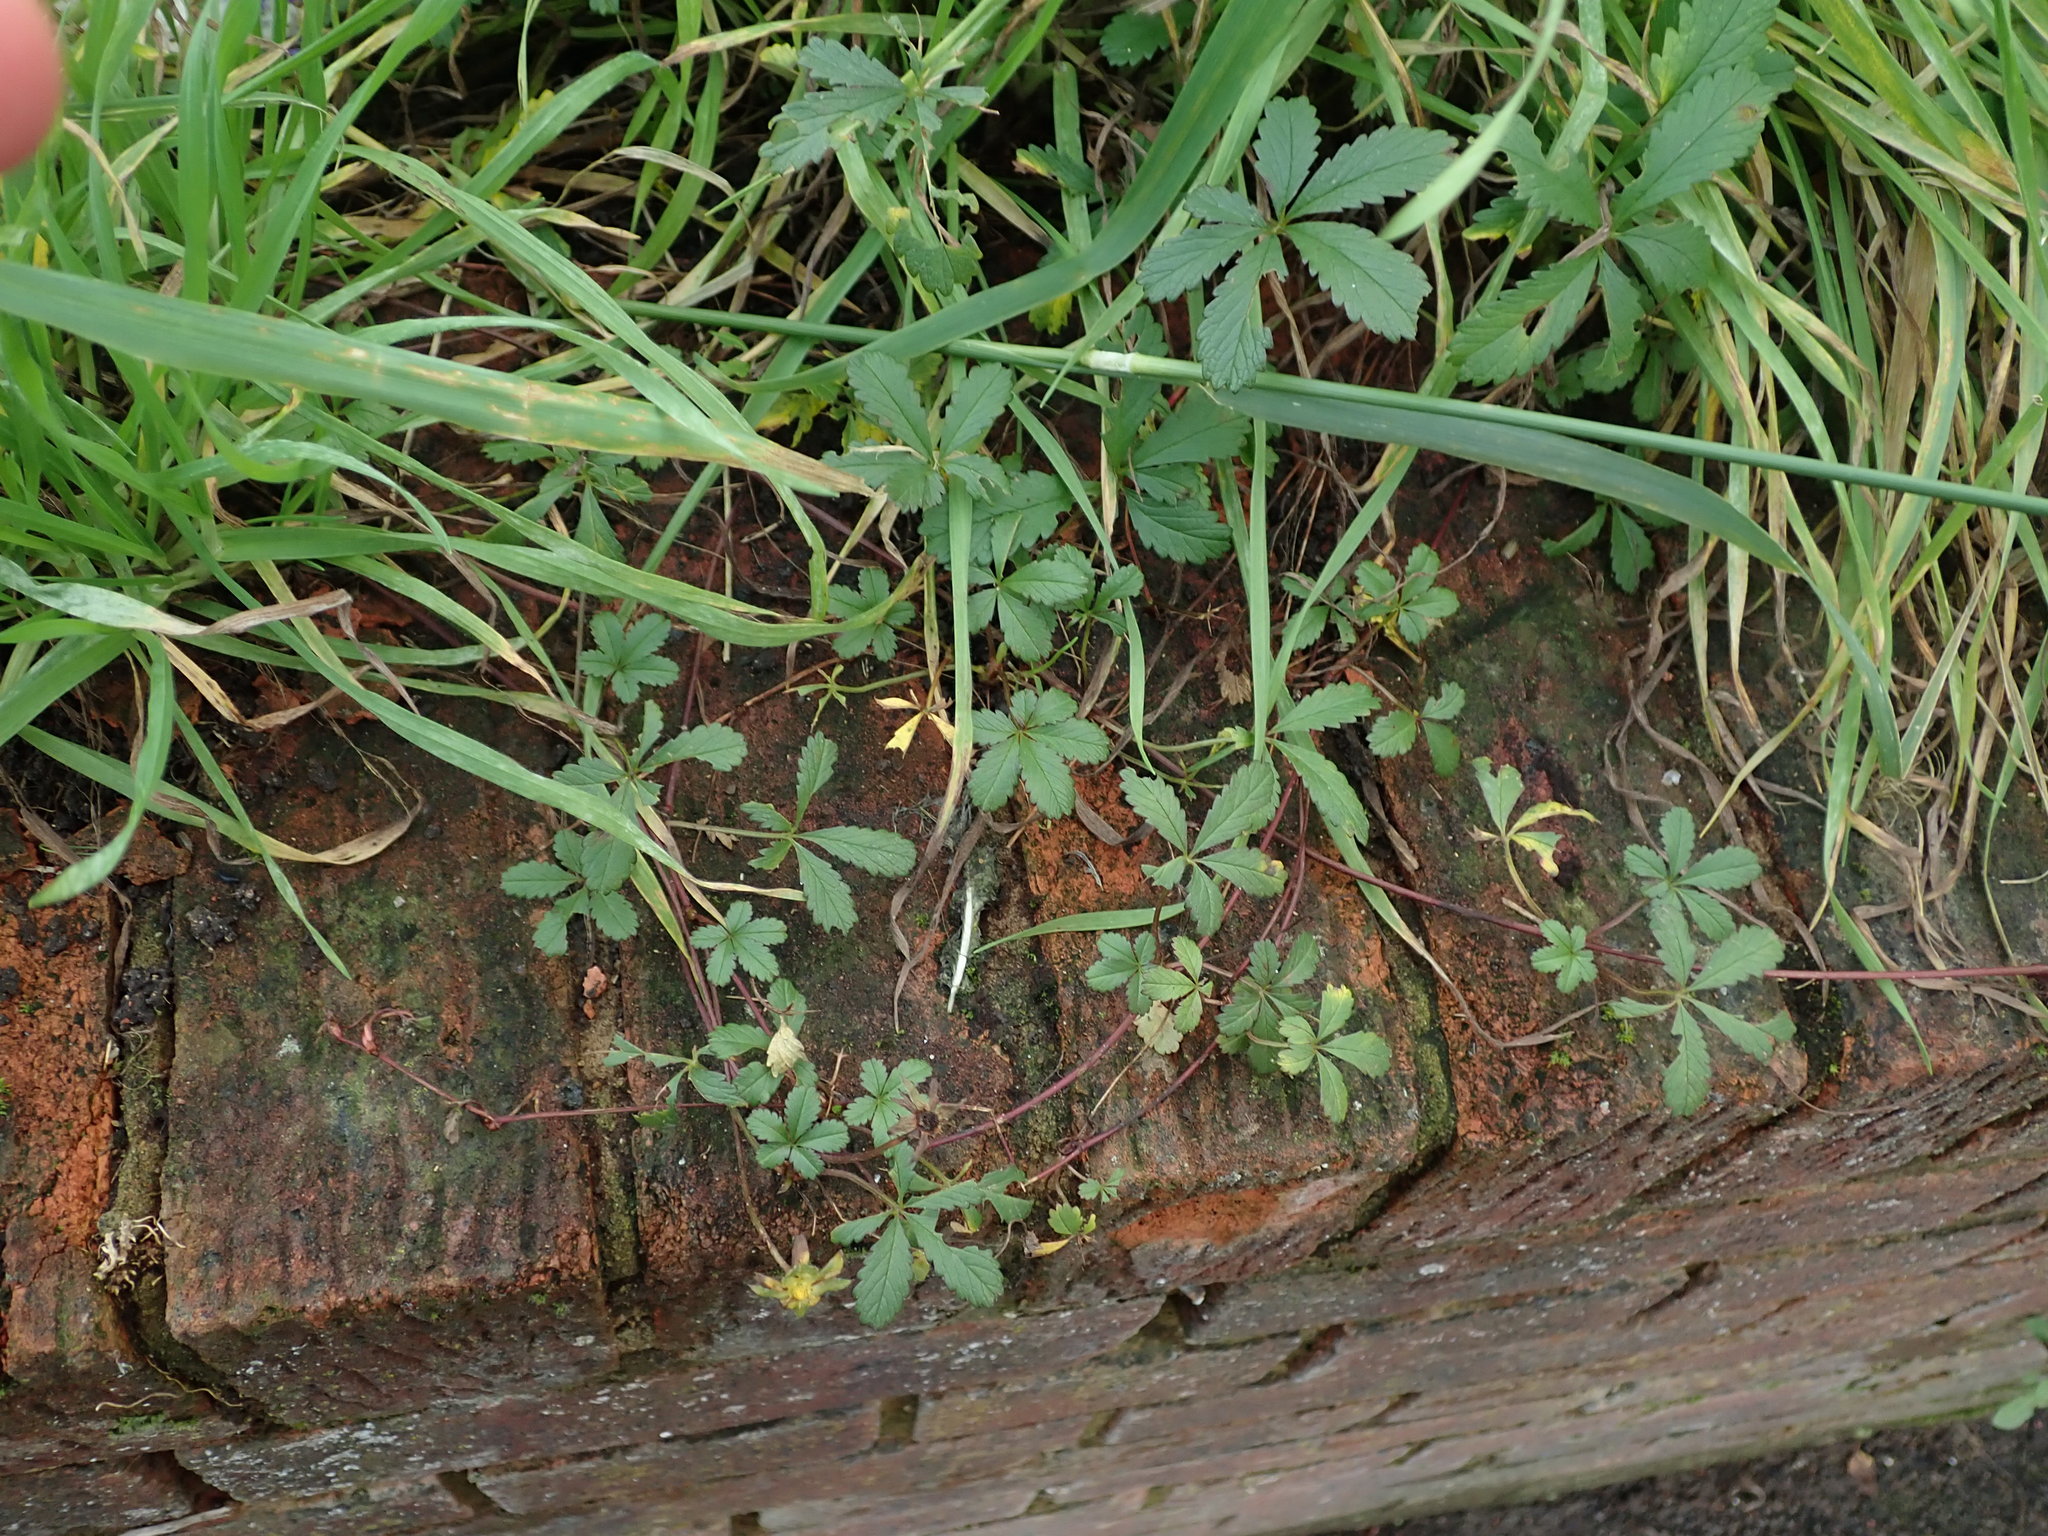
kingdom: Plantae
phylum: Tracheophyta
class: Magnoliopsida
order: Rosales
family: Rosaceae
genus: Potentilla
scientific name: Potentilla reptans
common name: Creeping cinquefoil
